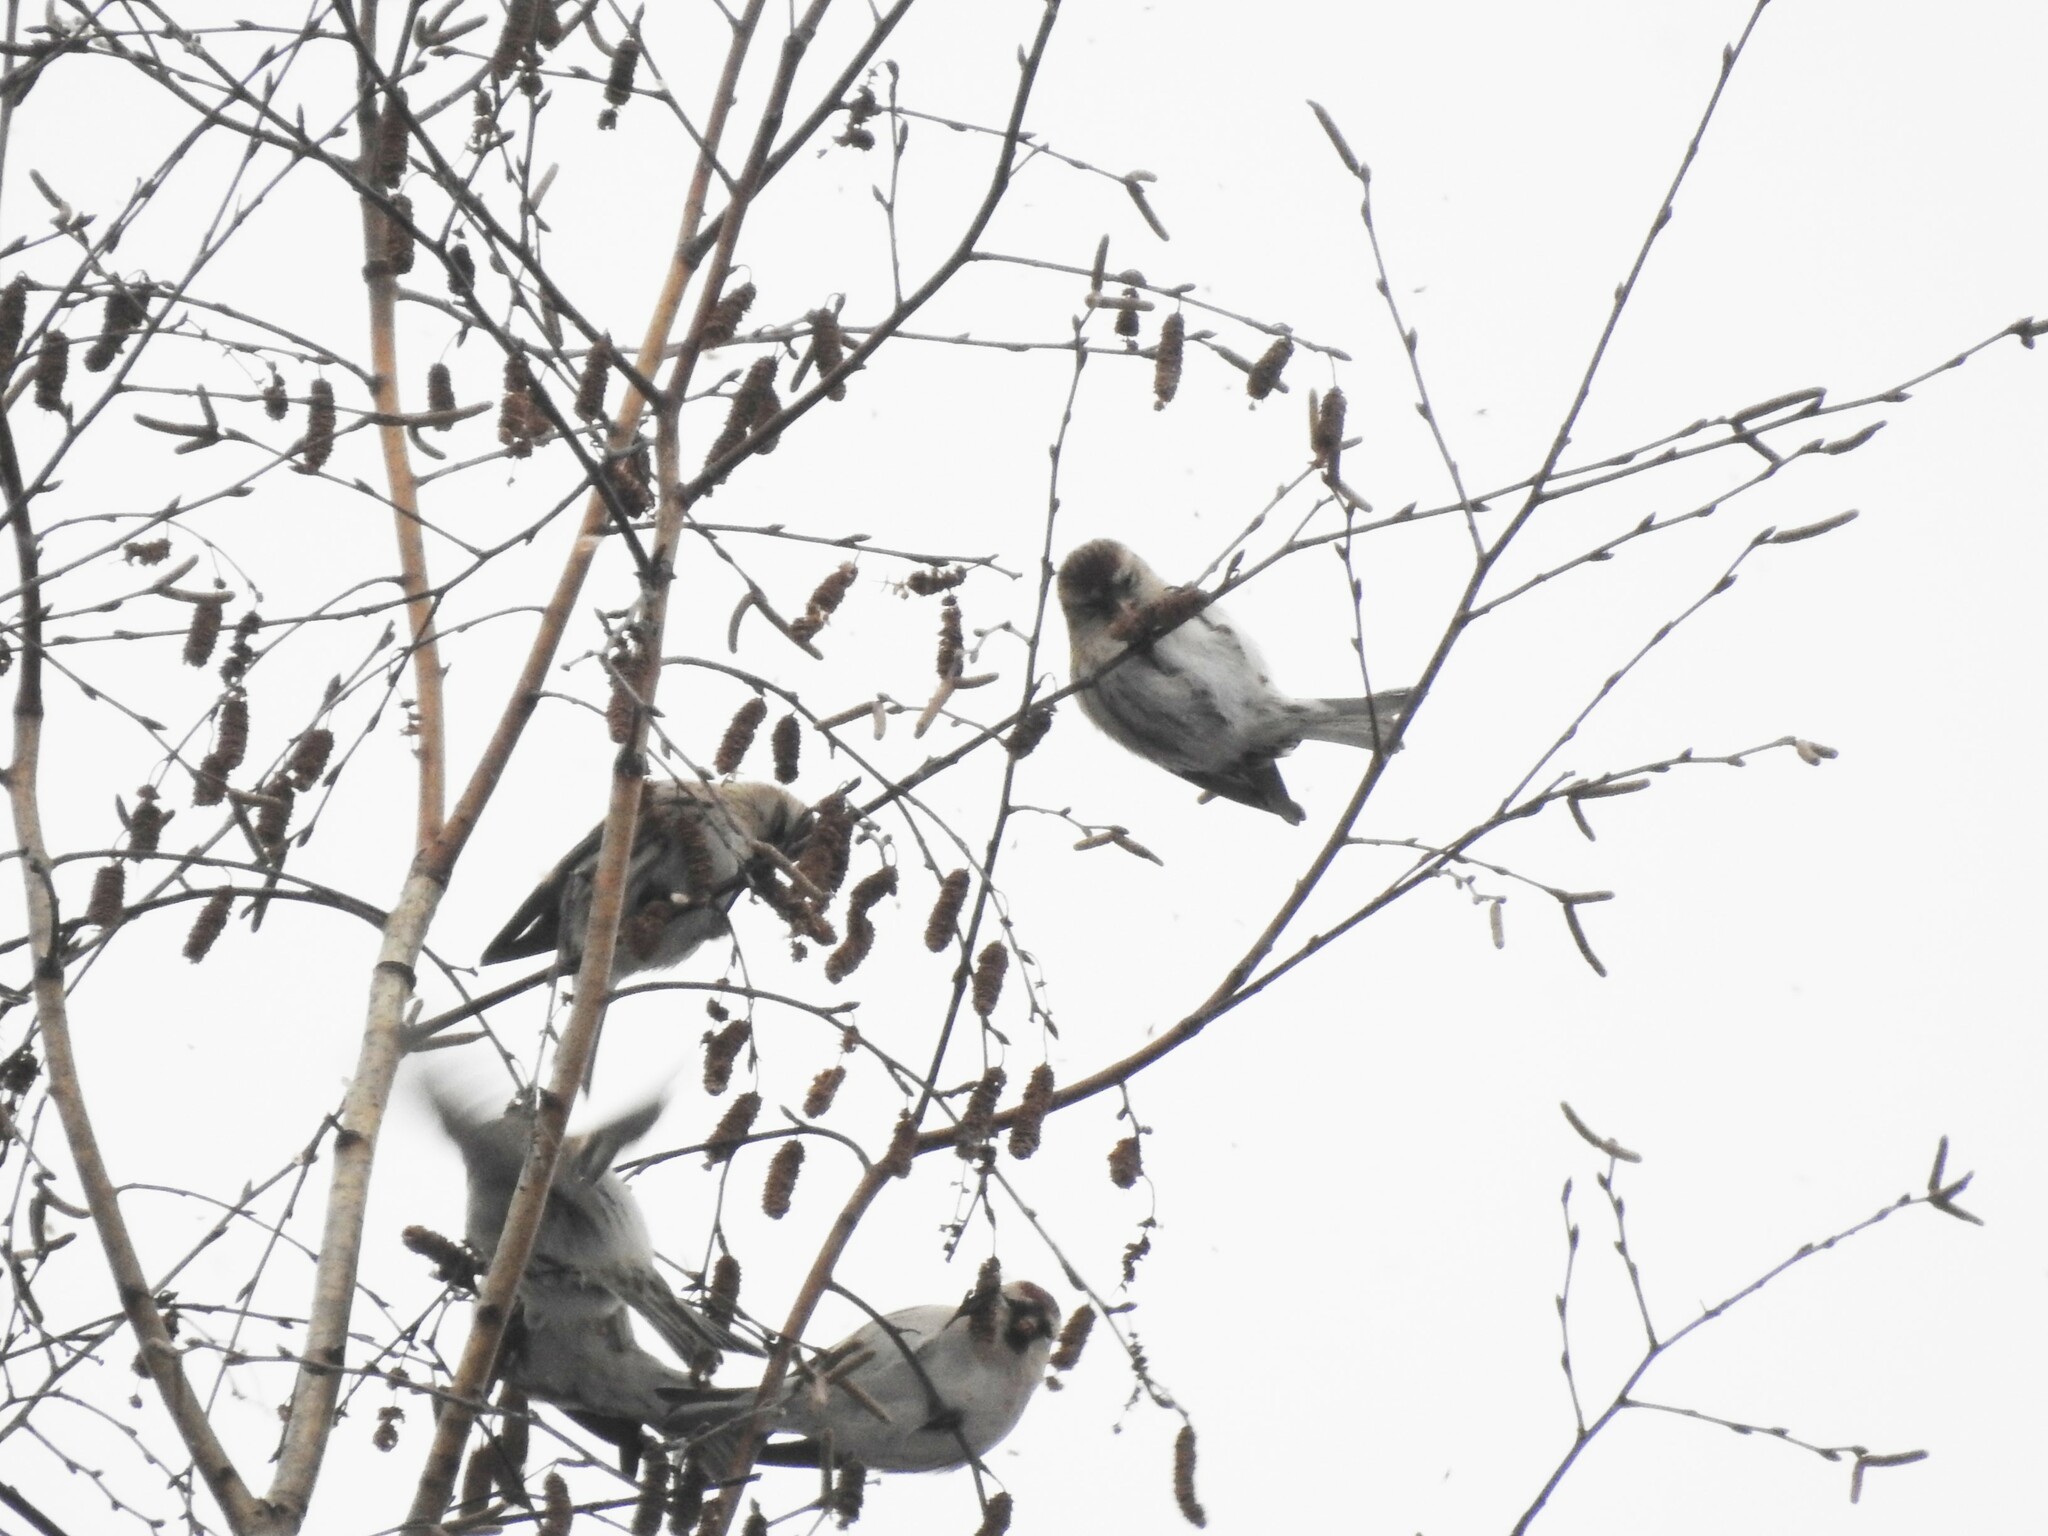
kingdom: Animalia
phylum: Chordata
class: Aves
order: Passeriformes
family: Fringillidae
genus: Acanthis
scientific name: Acanthis flammea
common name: Common redpoll
